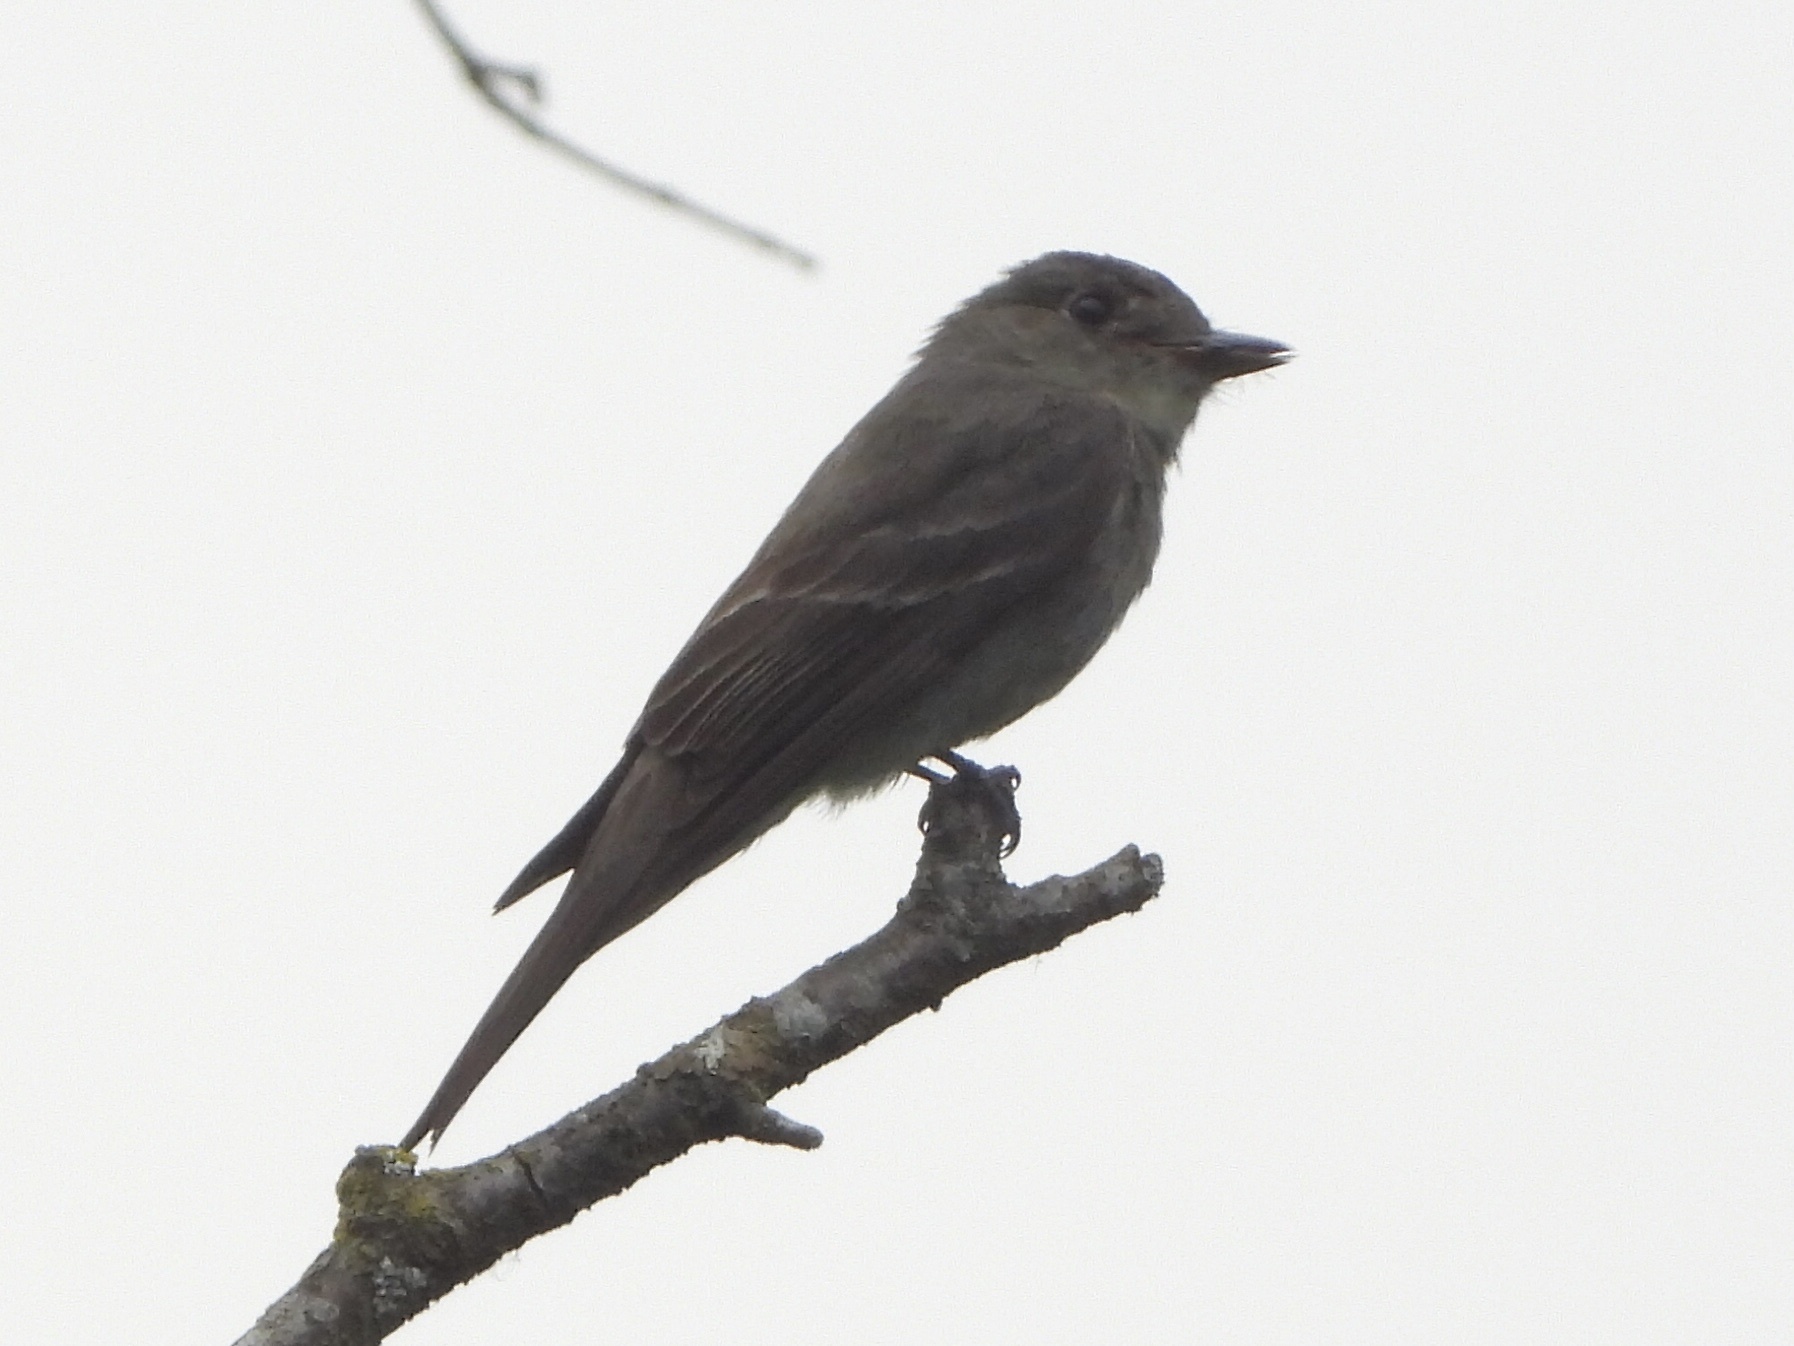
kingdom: Animalia
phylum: Chordata
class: Aves
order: Passeriformes
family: Tyrannidae
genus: Contopus
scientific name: Contopus sordidulus
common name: Western wood-pewee
